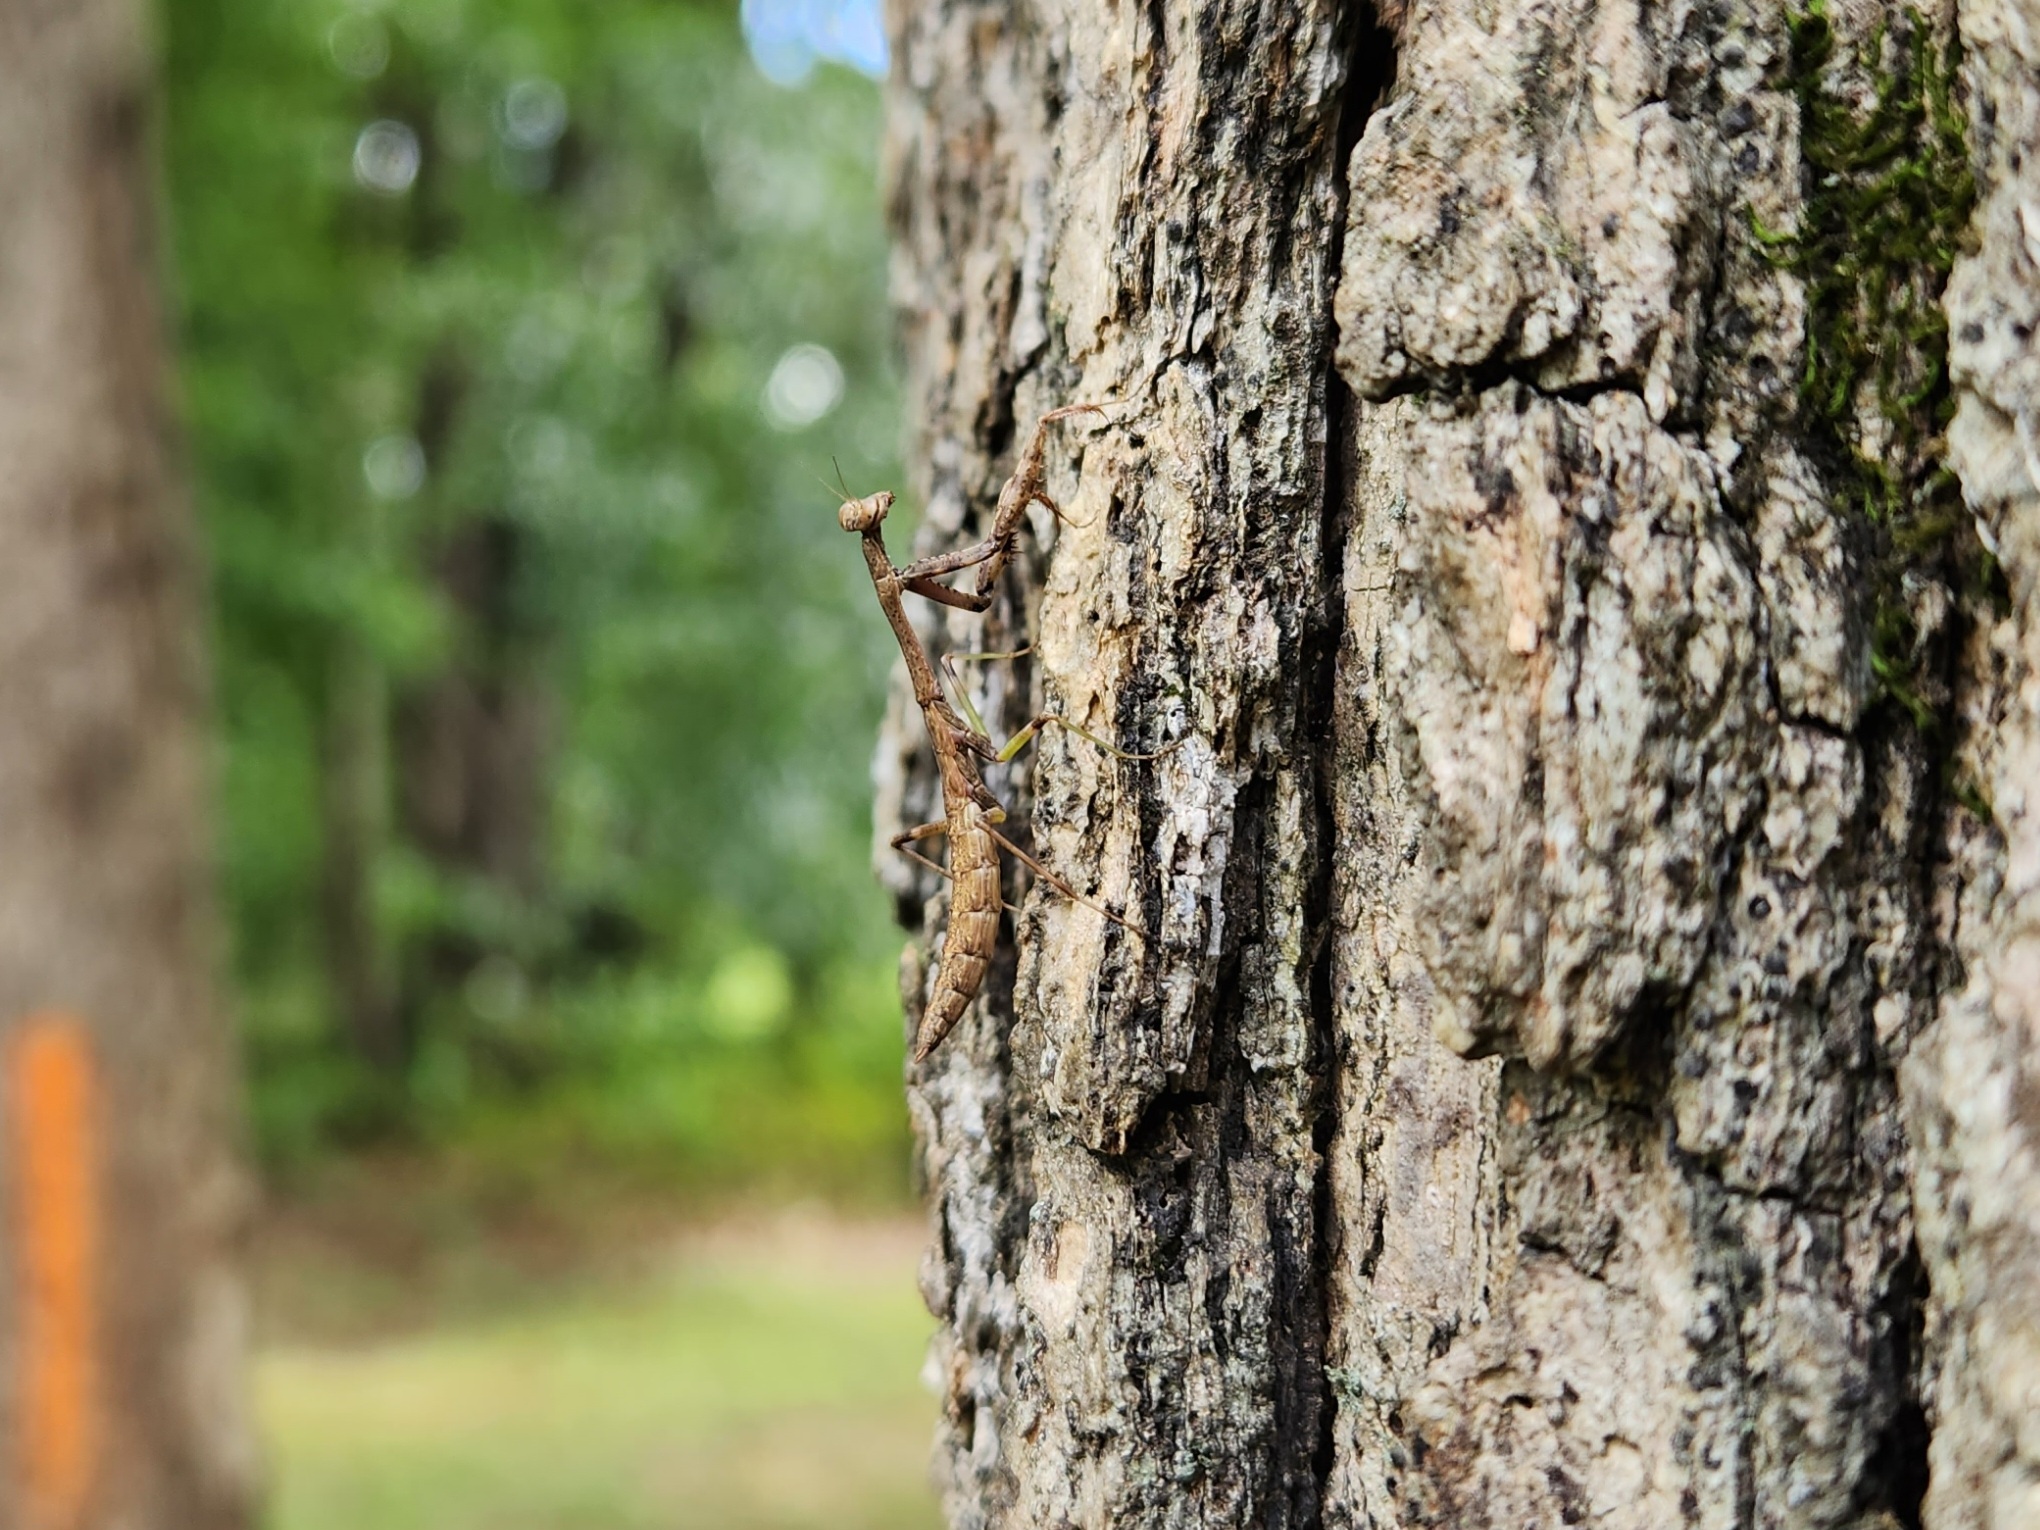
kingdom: Animalia
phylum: Arthropoda
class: Insecta
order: Mantodea
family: Mantidae
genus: Stagmomantis
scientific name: Stagmomantis carolina
